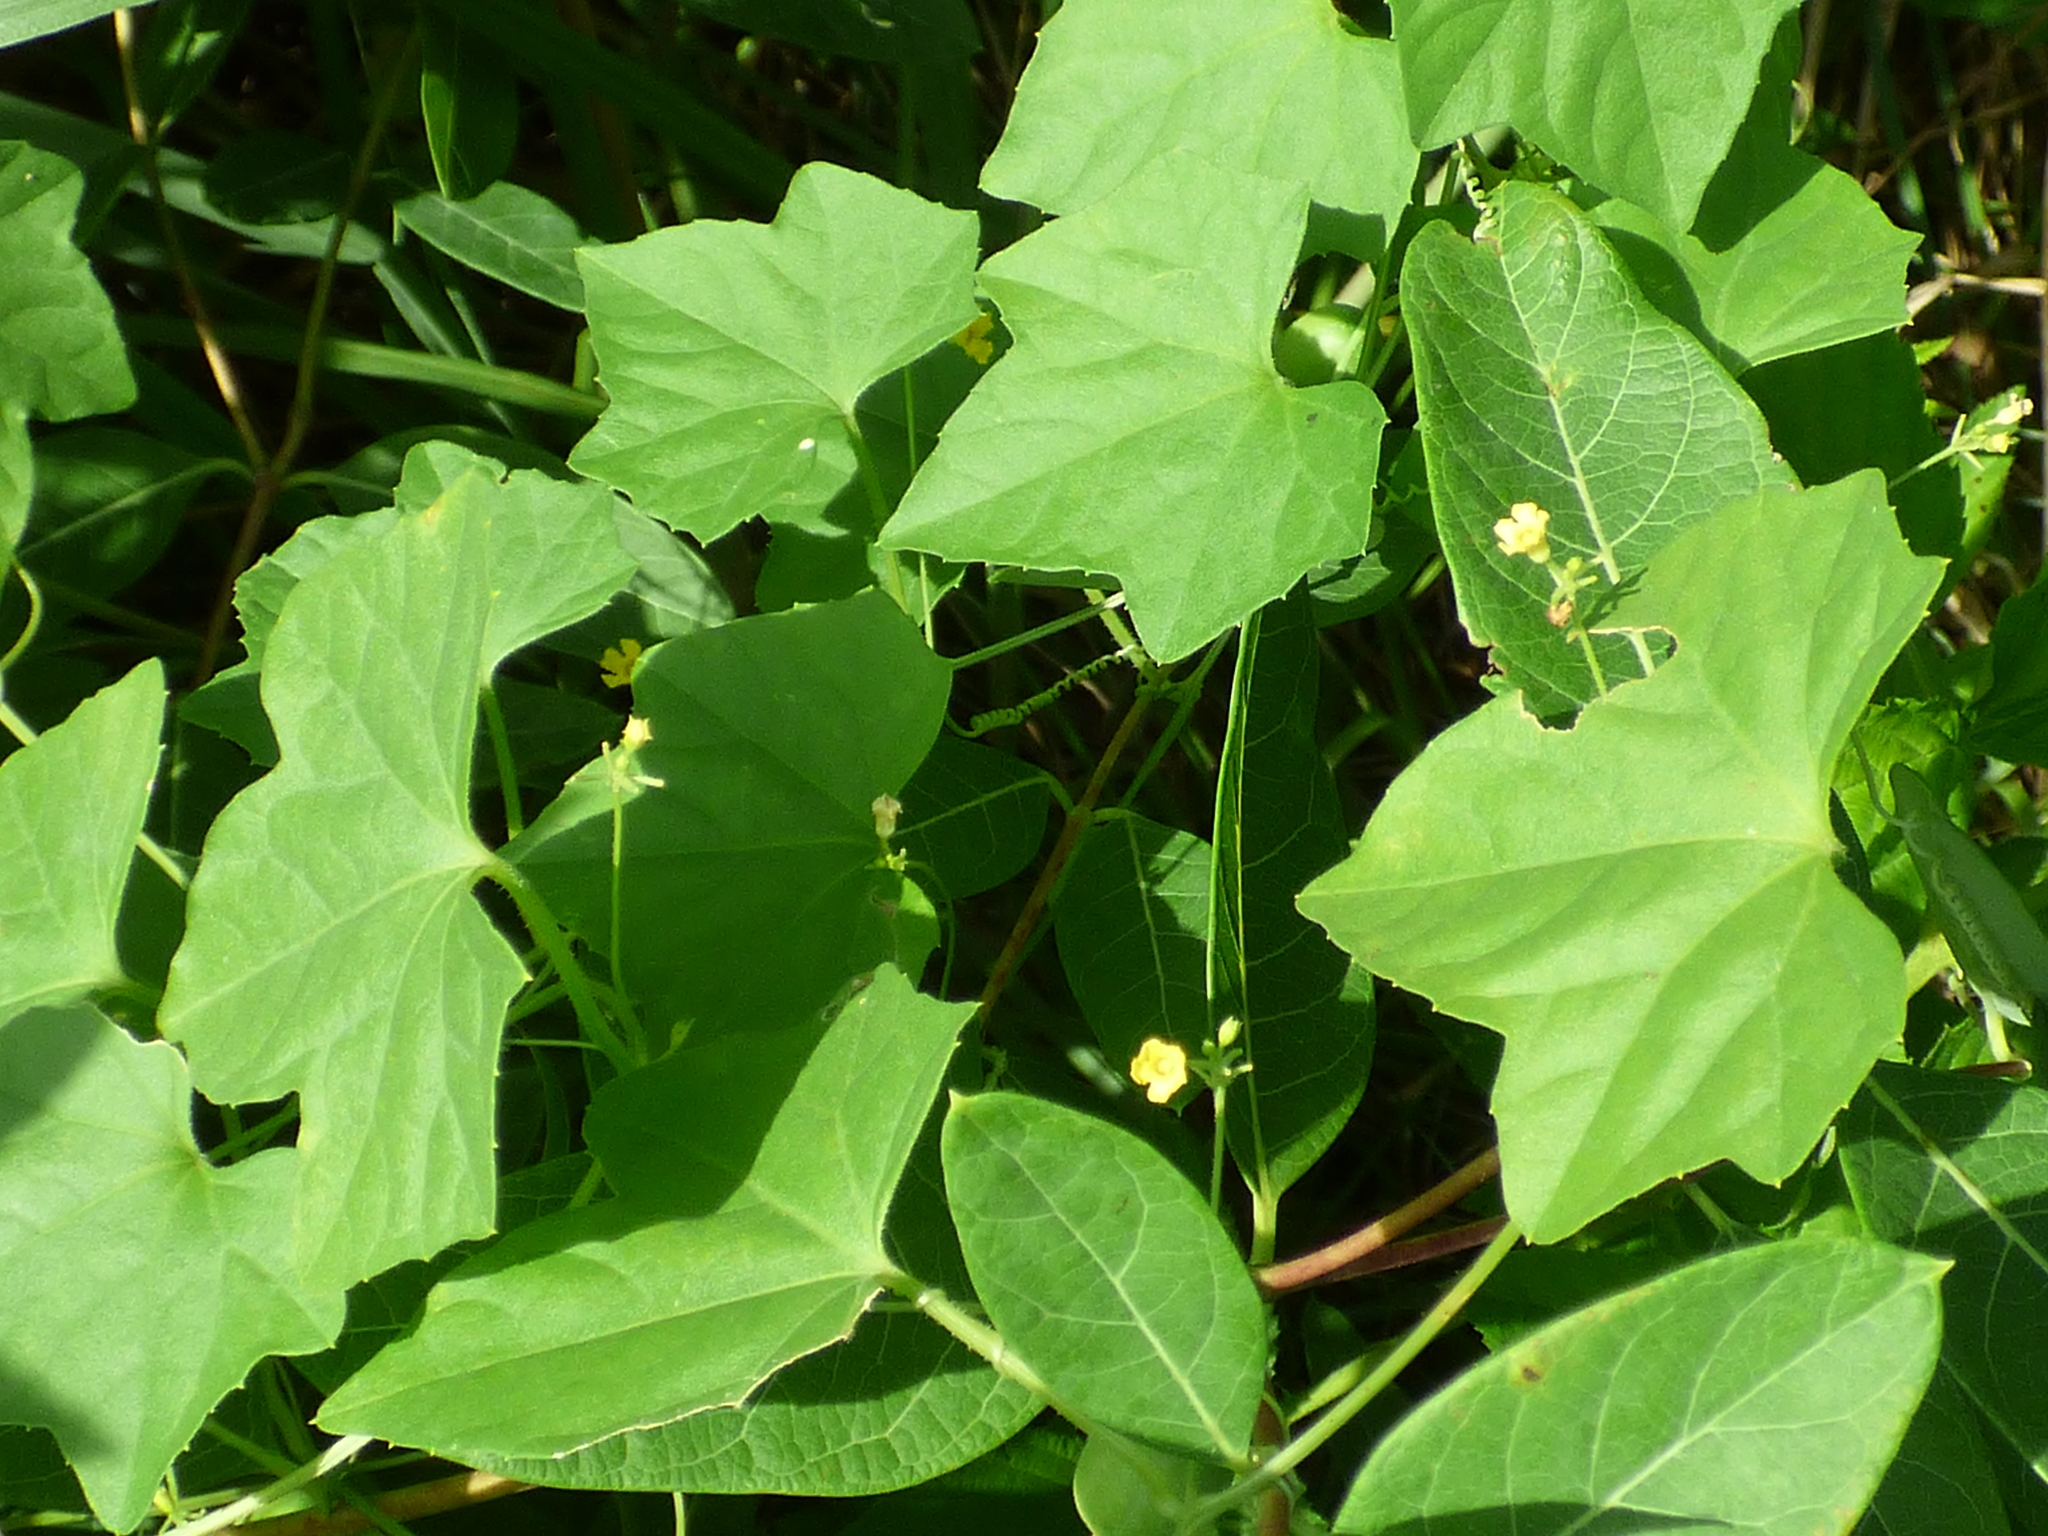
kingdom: Plantae
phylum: Tracheophyta
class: Magnoliopsida
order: Cucurbitales
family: Cucurbitaceae
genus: Melothria
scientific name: Melothria pendula
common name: Creeping-cucumber
